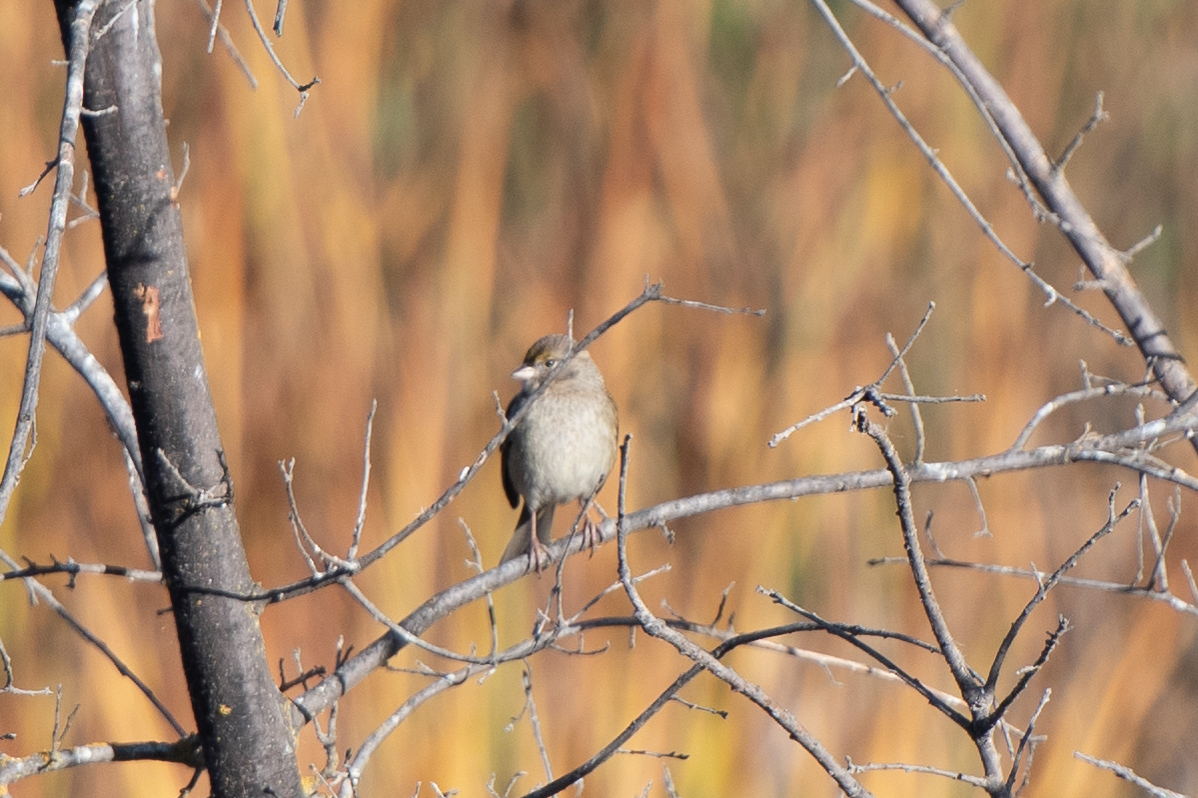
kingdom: Animalia
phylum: Chordata
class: Aves
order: Passeriformes
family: Passerellidae
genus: Zonotrichia
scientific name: Zonotrichia atricapilla
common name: Golden-crowned sparrow
